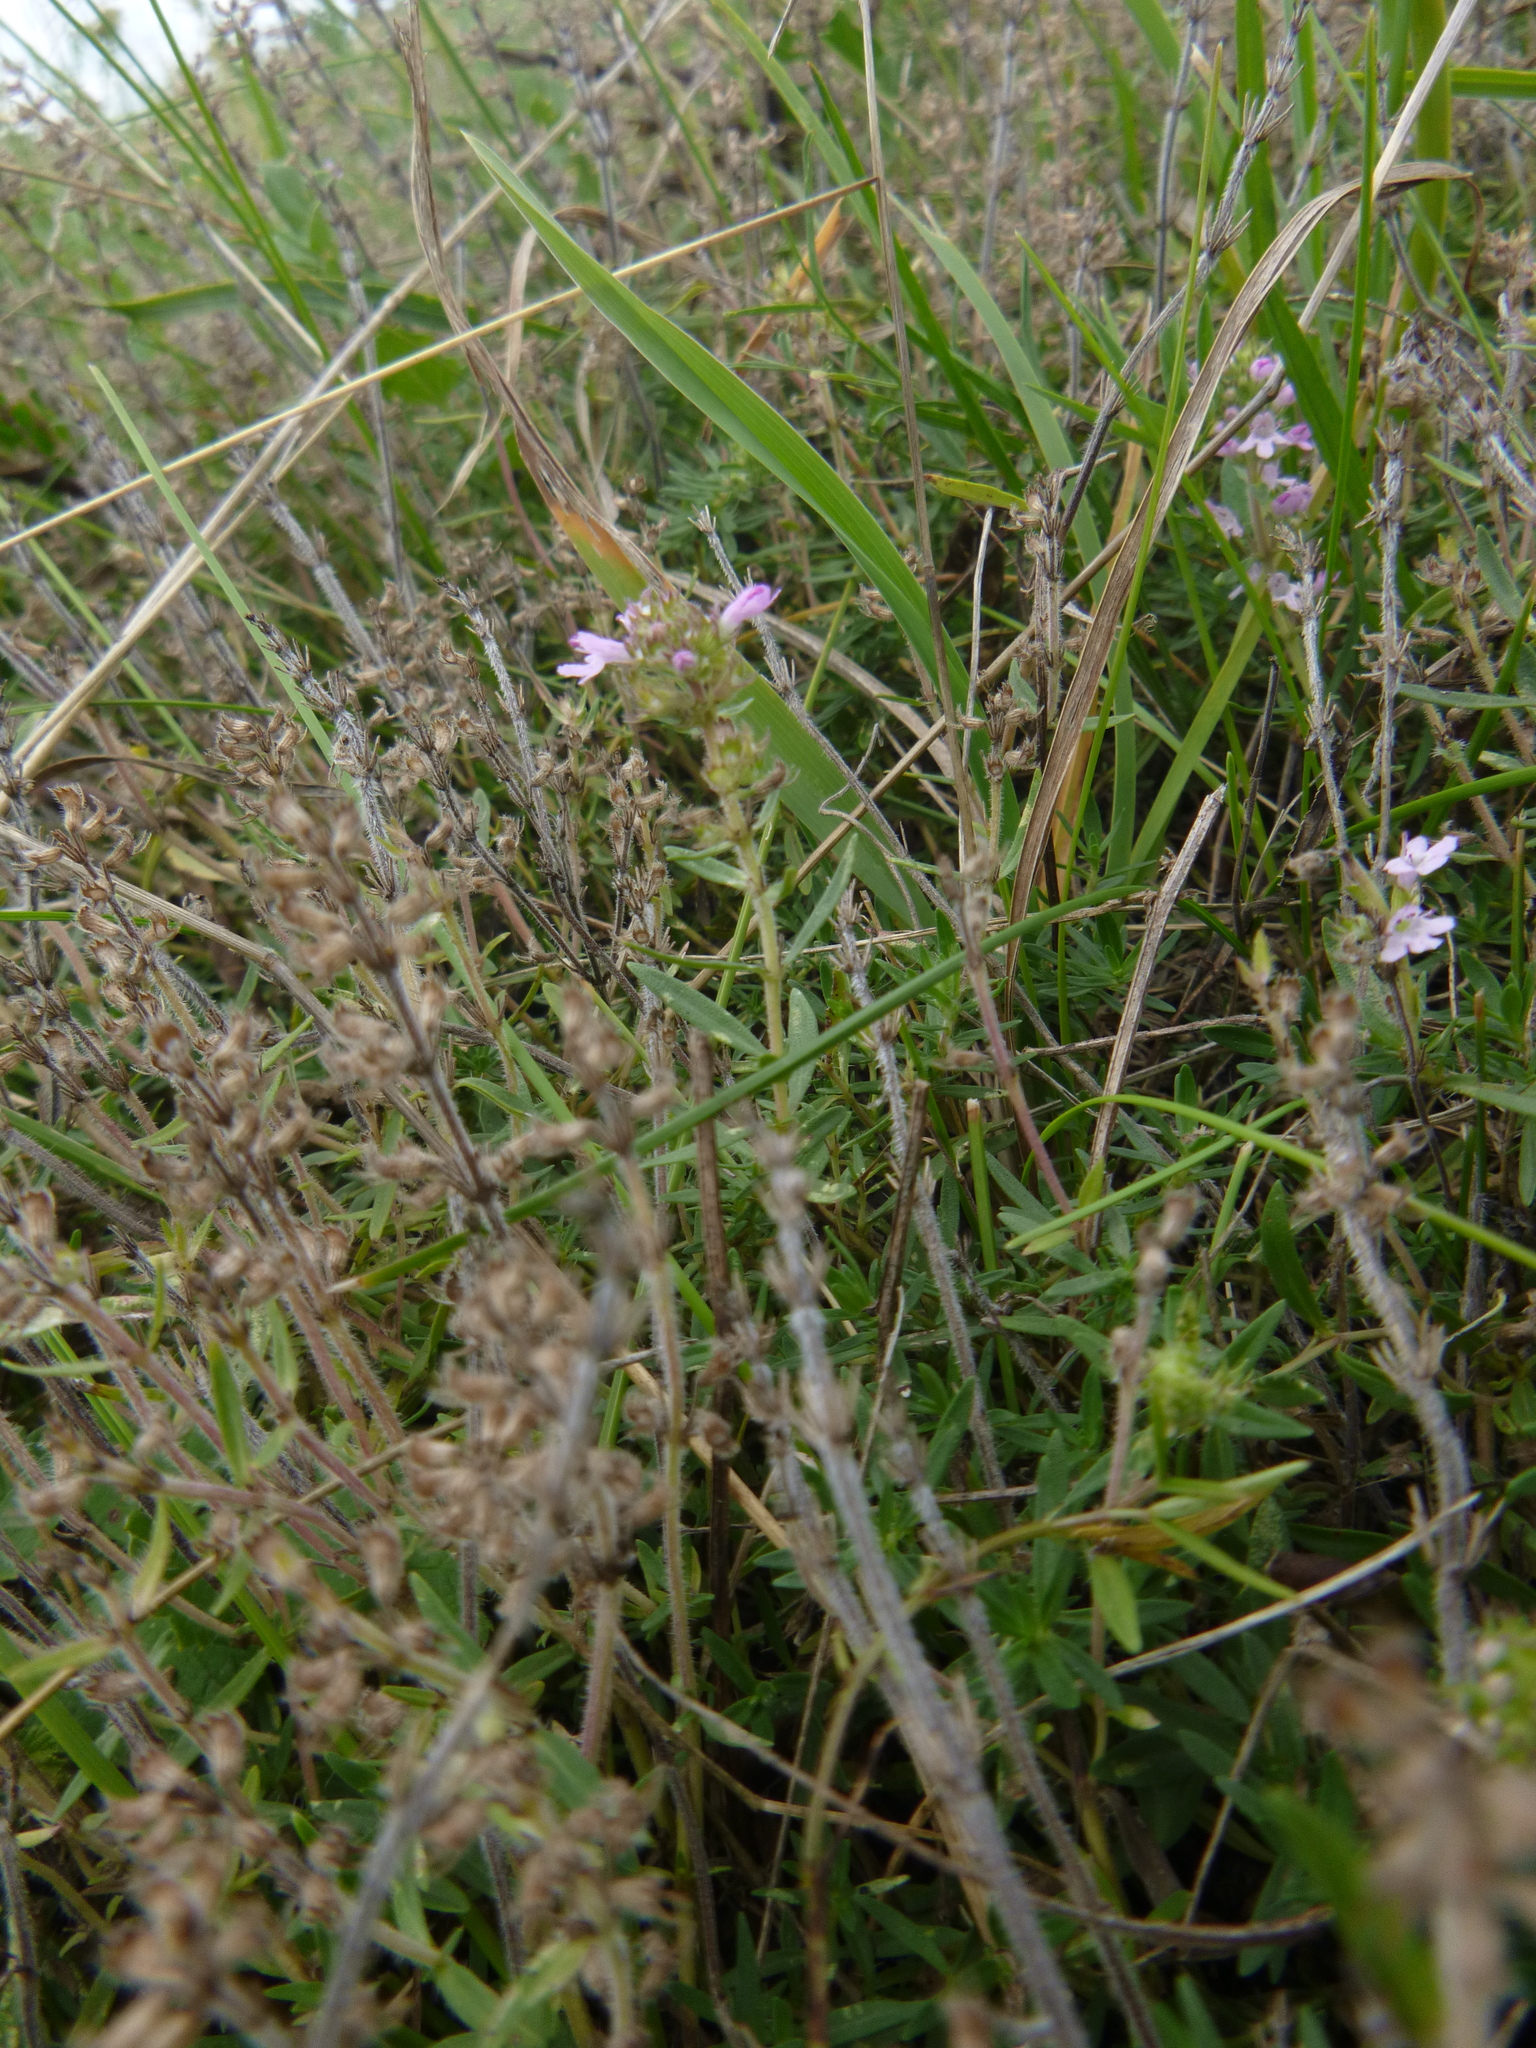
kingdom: Plantae
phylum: Tracheophyta
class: Magnoliopsida
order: Lamiales
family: Lamiaceae
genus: Thymus
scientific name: Thymus kosteleckyanus
